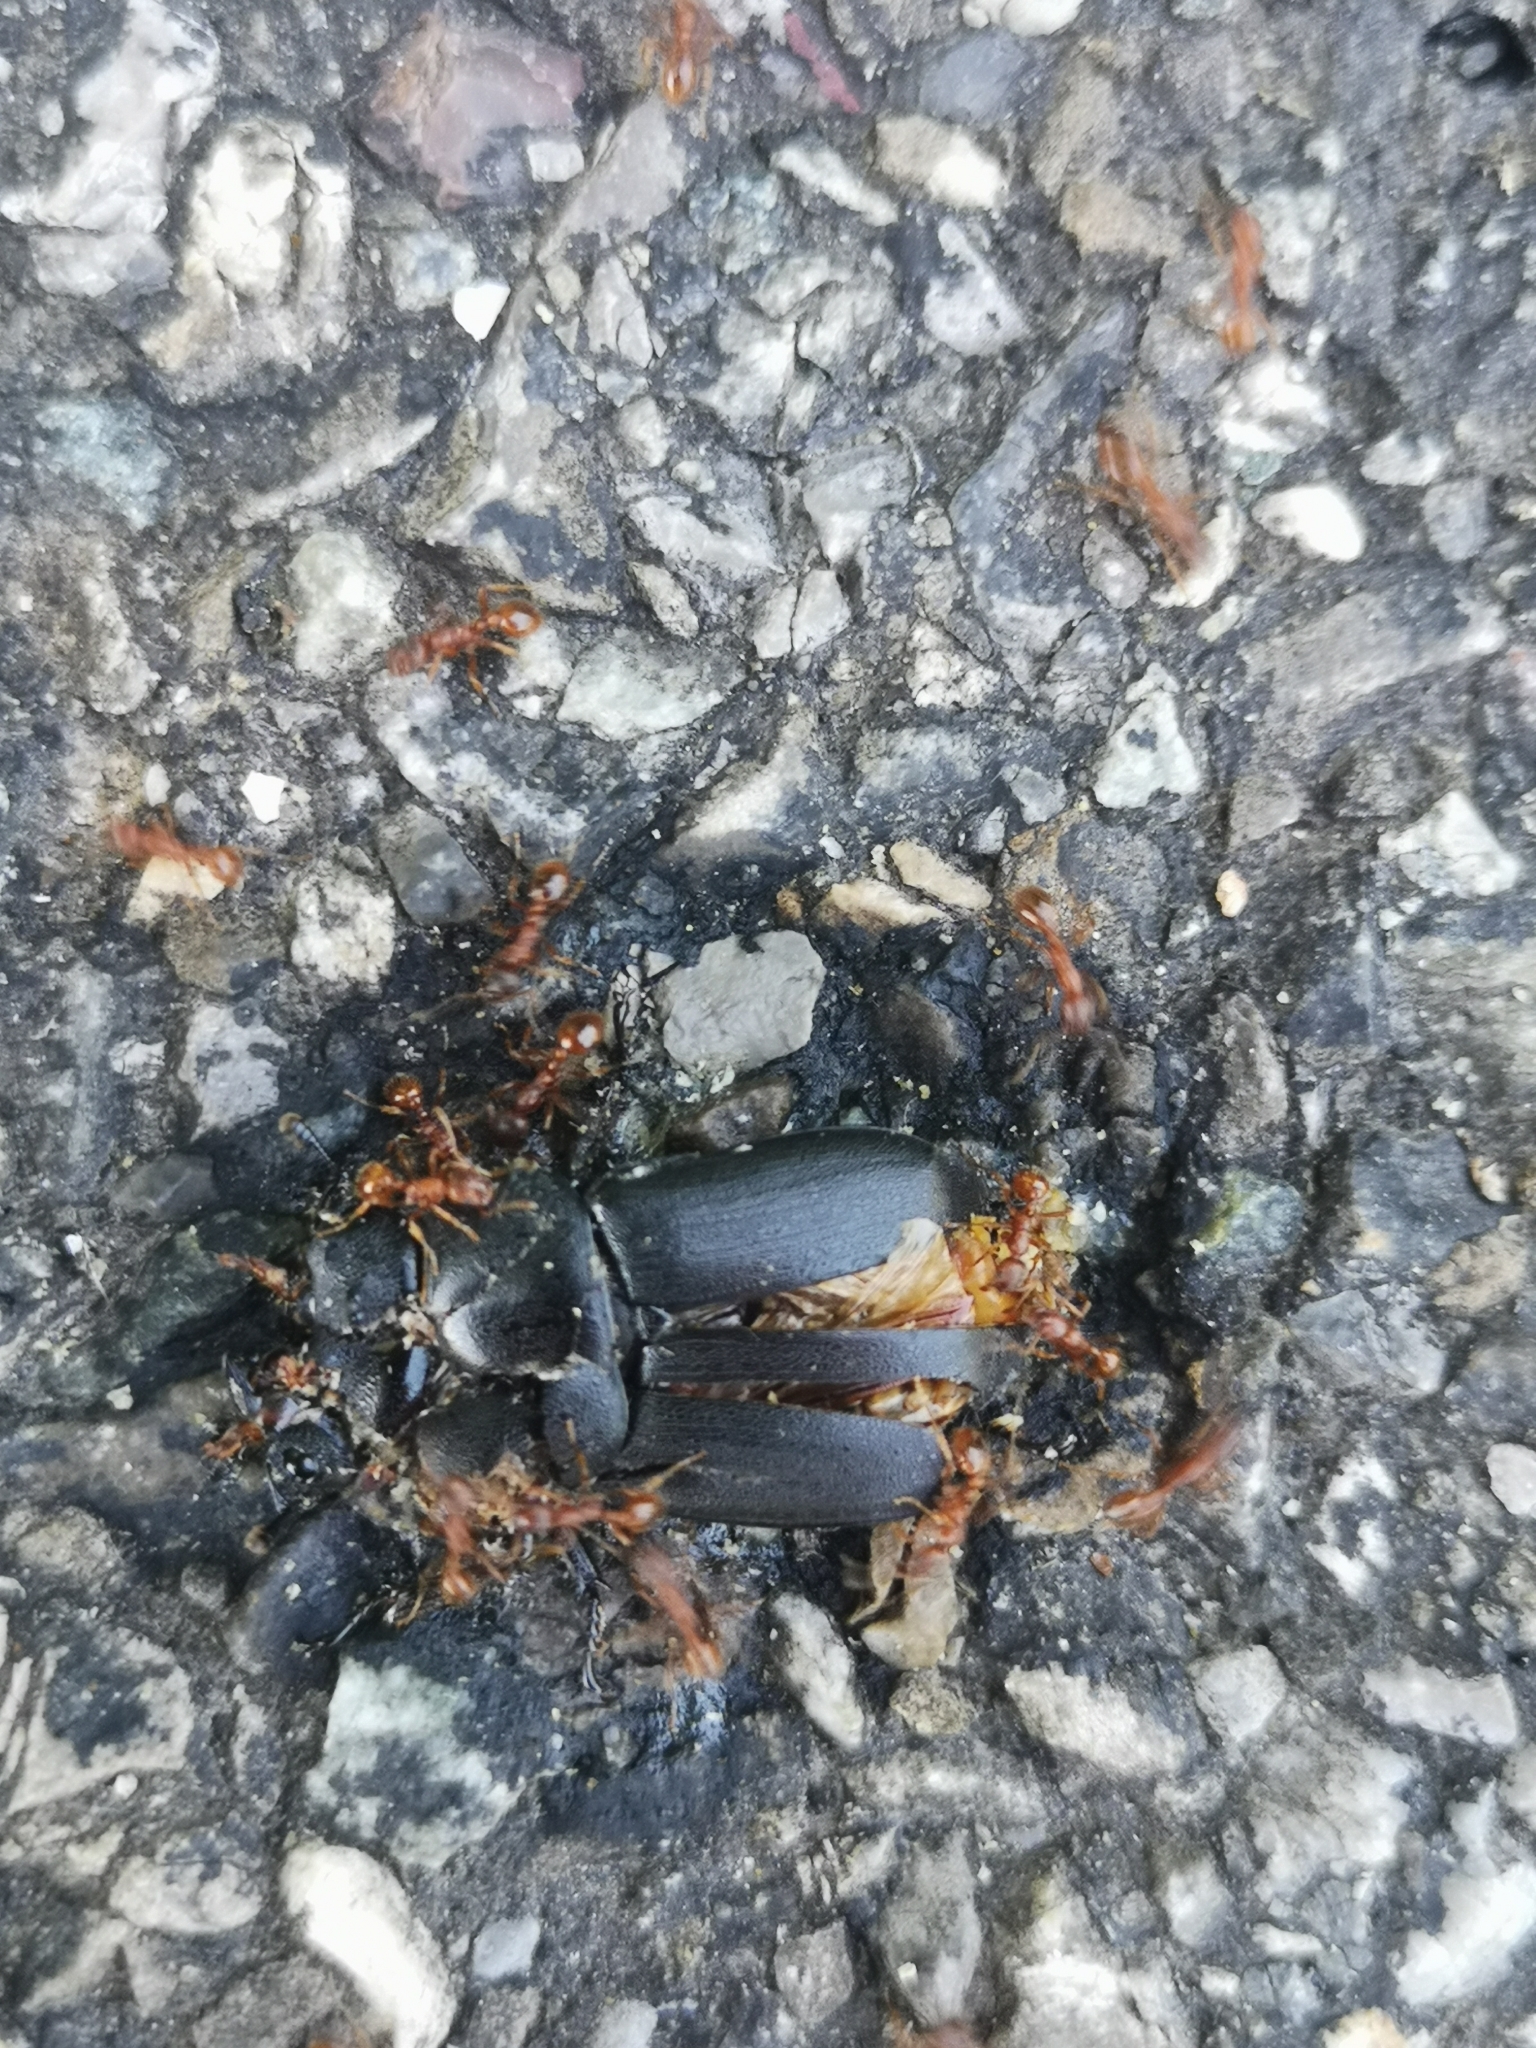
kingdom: Animalia
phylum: Arthropoda
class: Insecta
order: Coleoptera
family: Lucanidae
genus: Dorcus
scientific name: Dorcus parallelipipedus
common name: Lesser stag beetle
